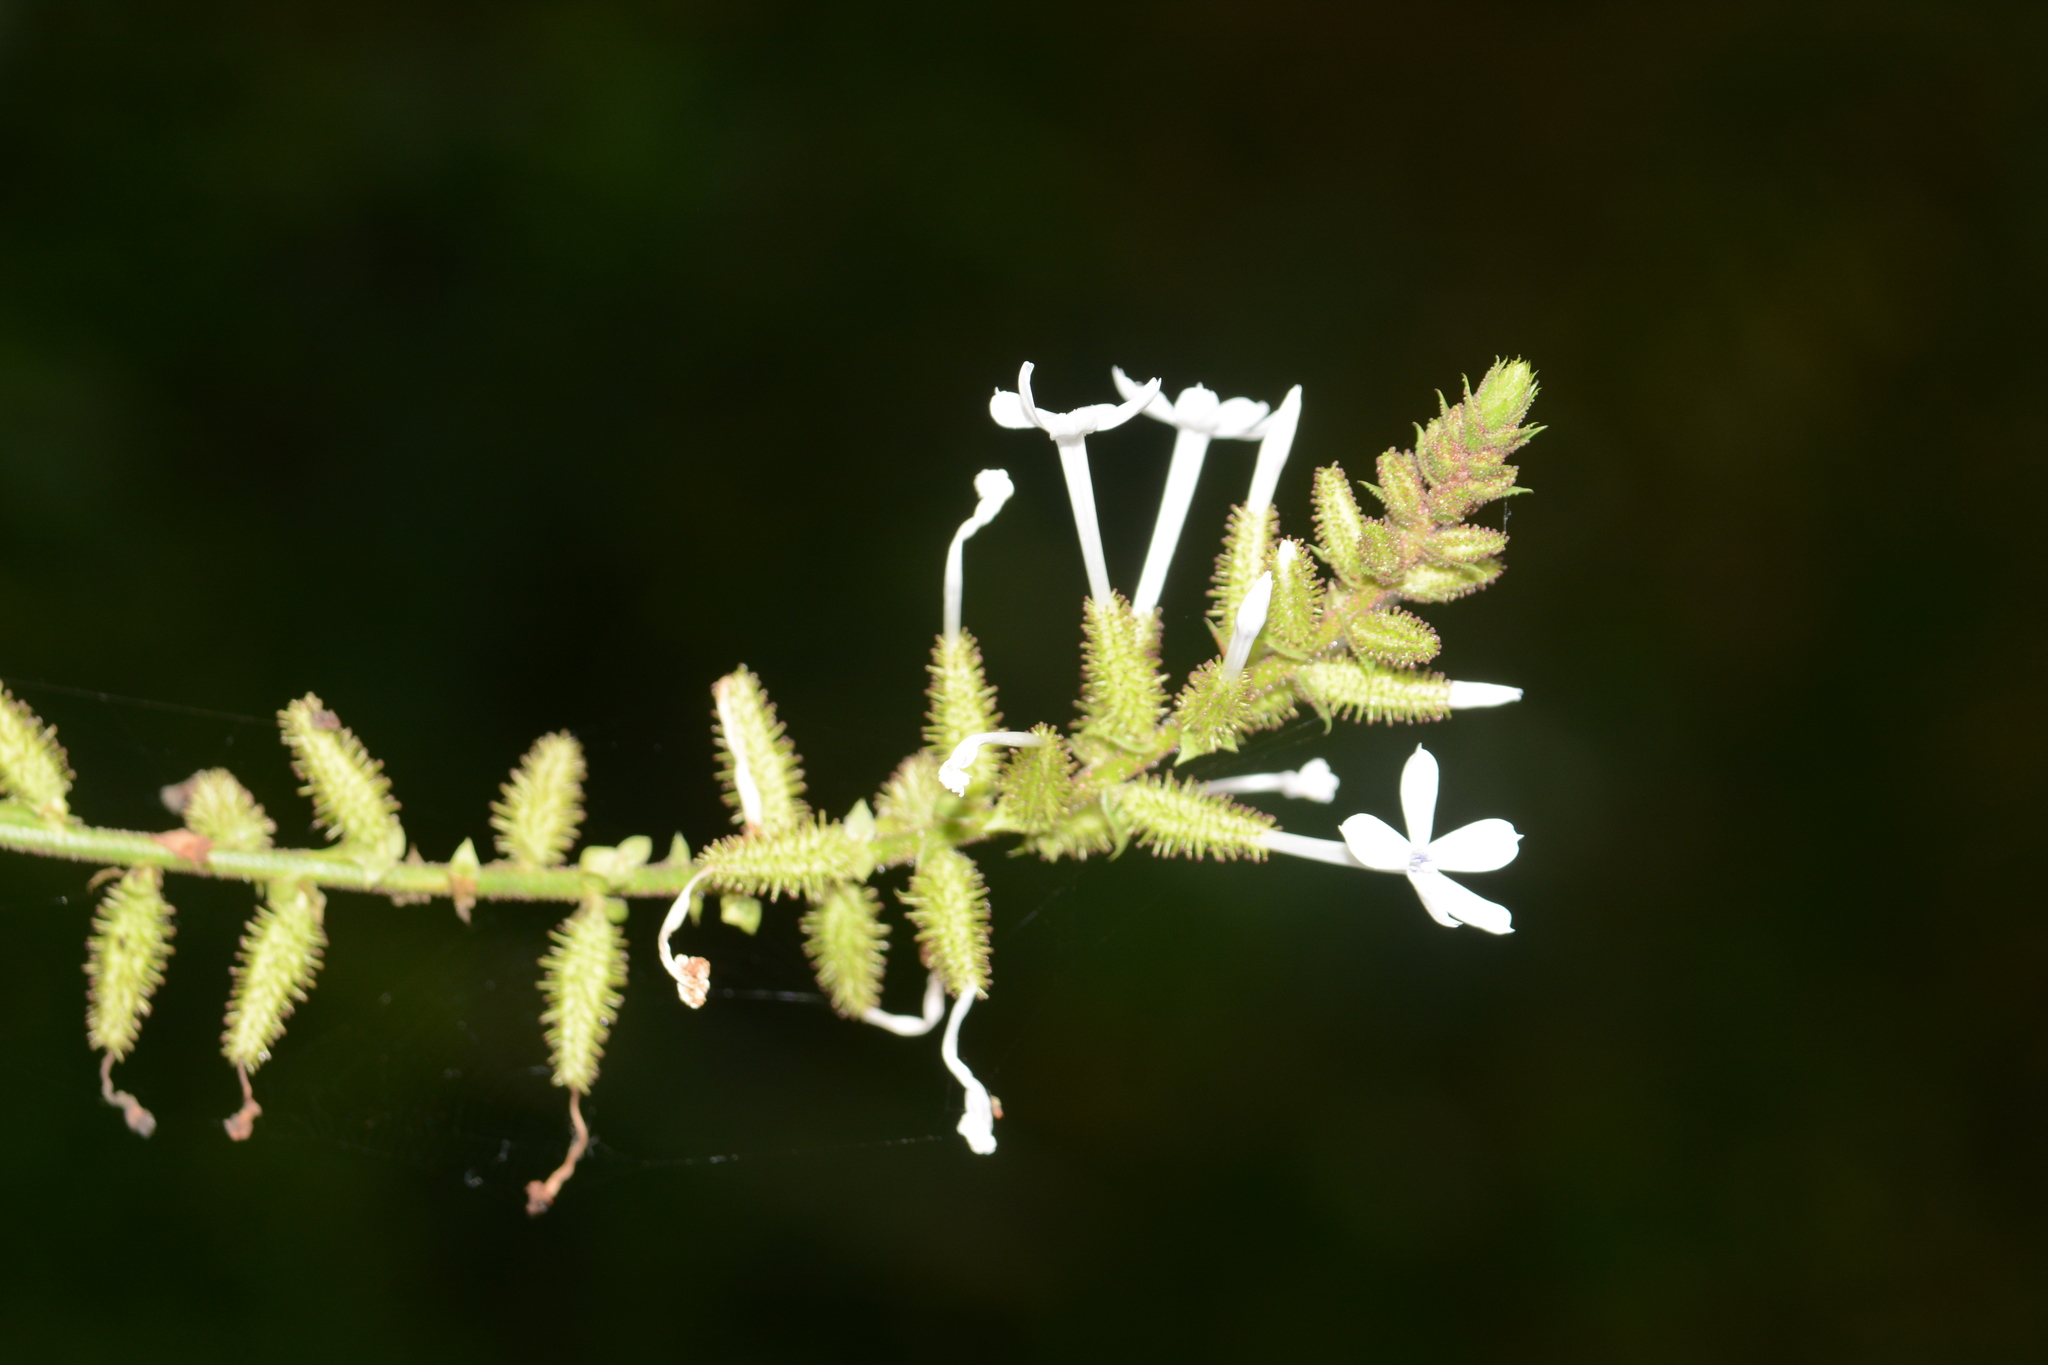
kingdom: Plantae
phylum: Tracheophyta
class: Magnoliopsida
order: Caryophyllales
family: Plumbaginaceae
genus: Plumbago
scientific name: Plumbago zeylanica
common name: Doctorbush
